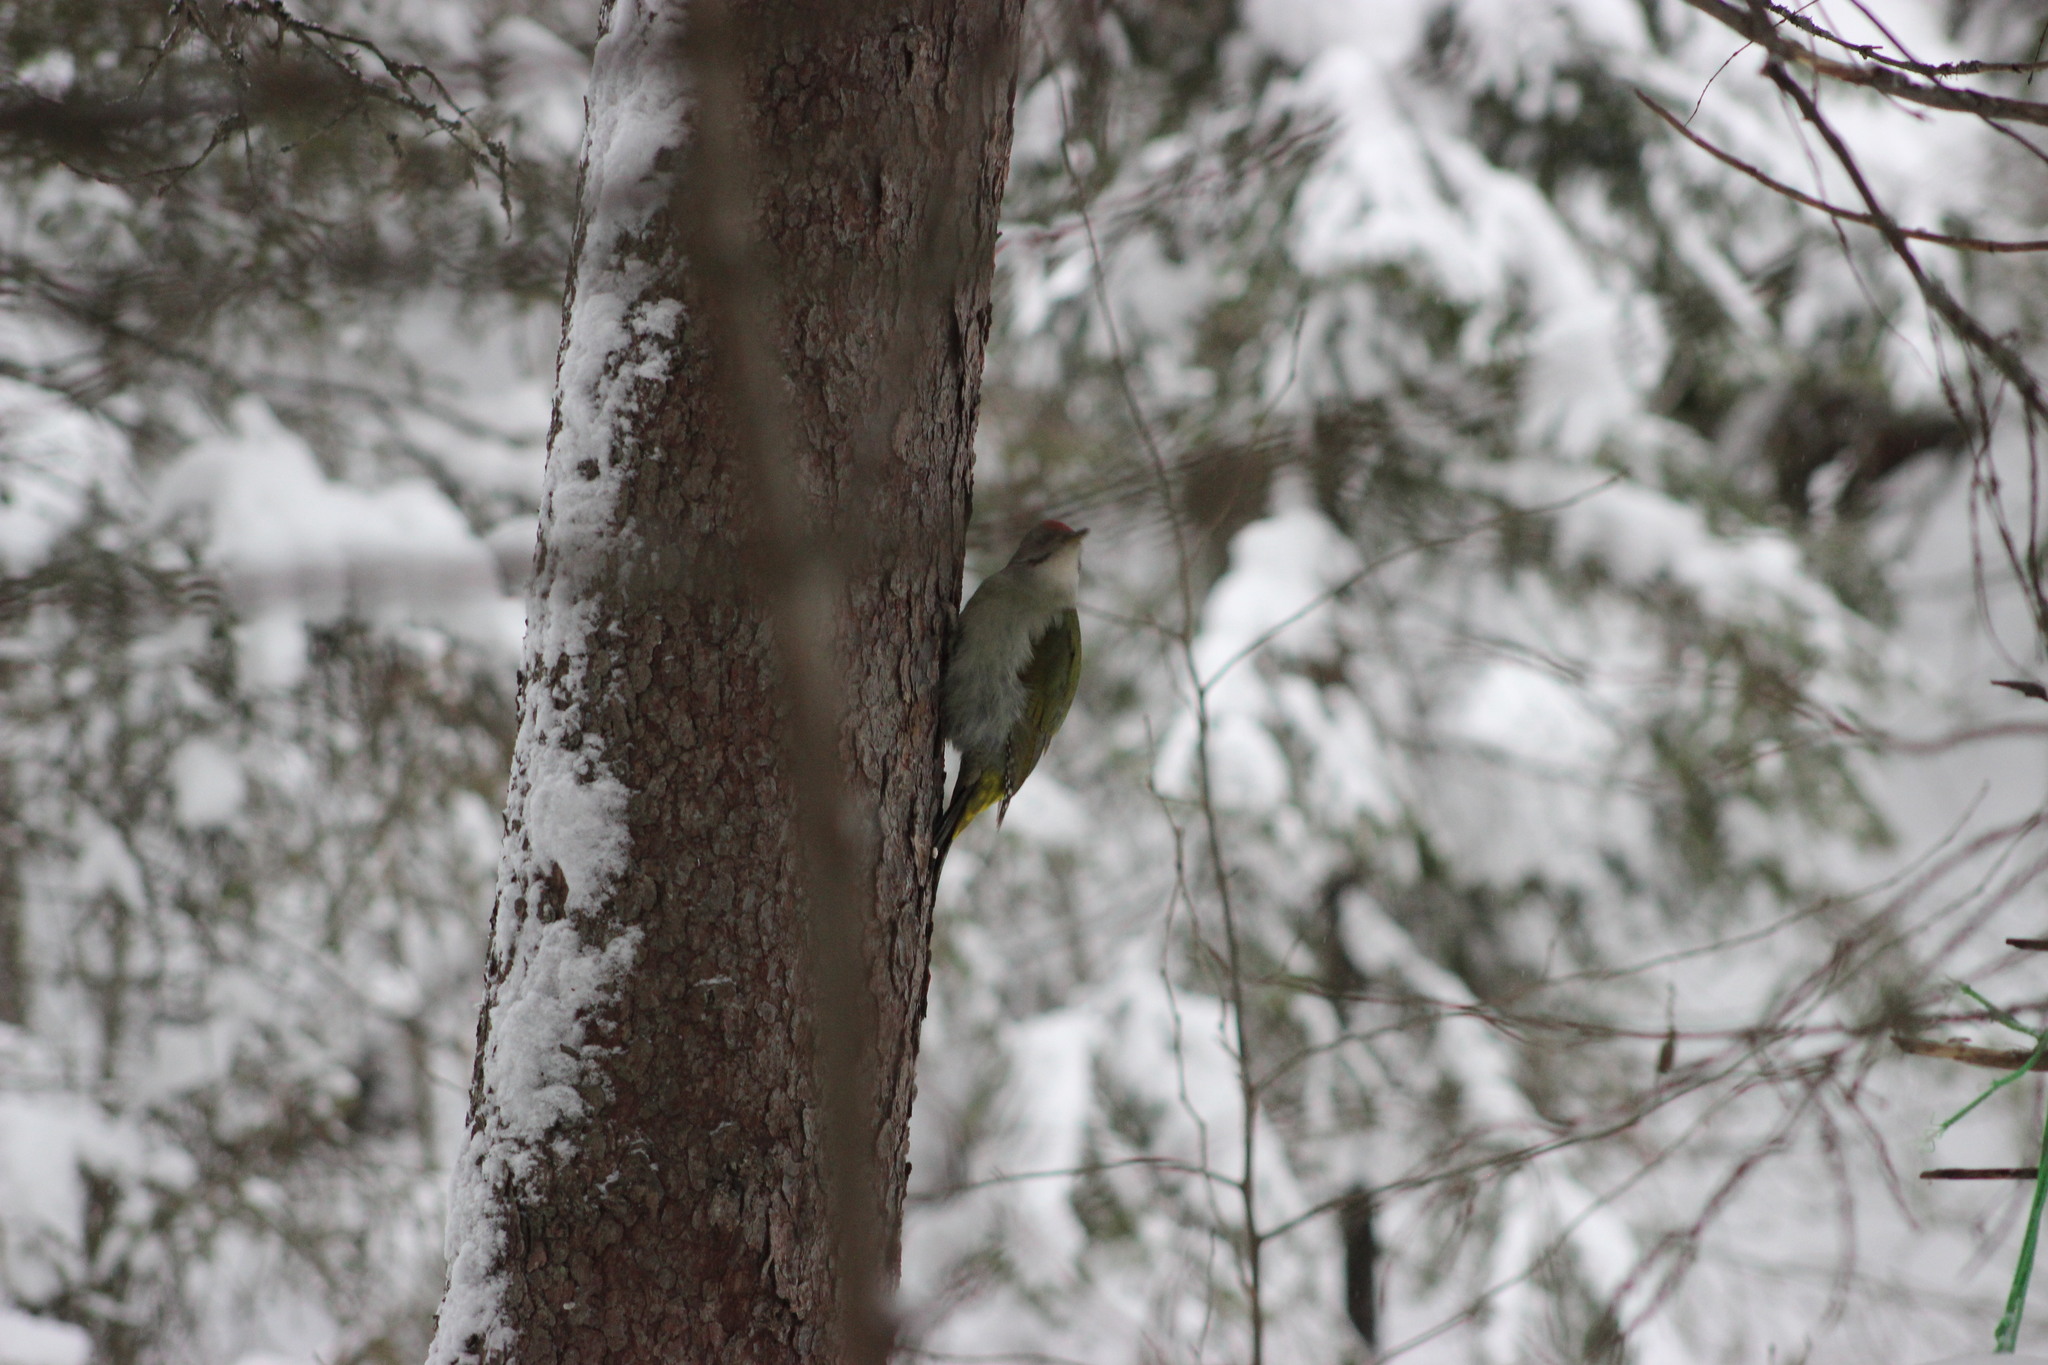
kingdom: Animalia
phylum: Chordata
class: Aves
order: Piciformes
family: Picidae
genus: Picus
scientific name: Picus canus
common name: Grey-headed woodpecker
